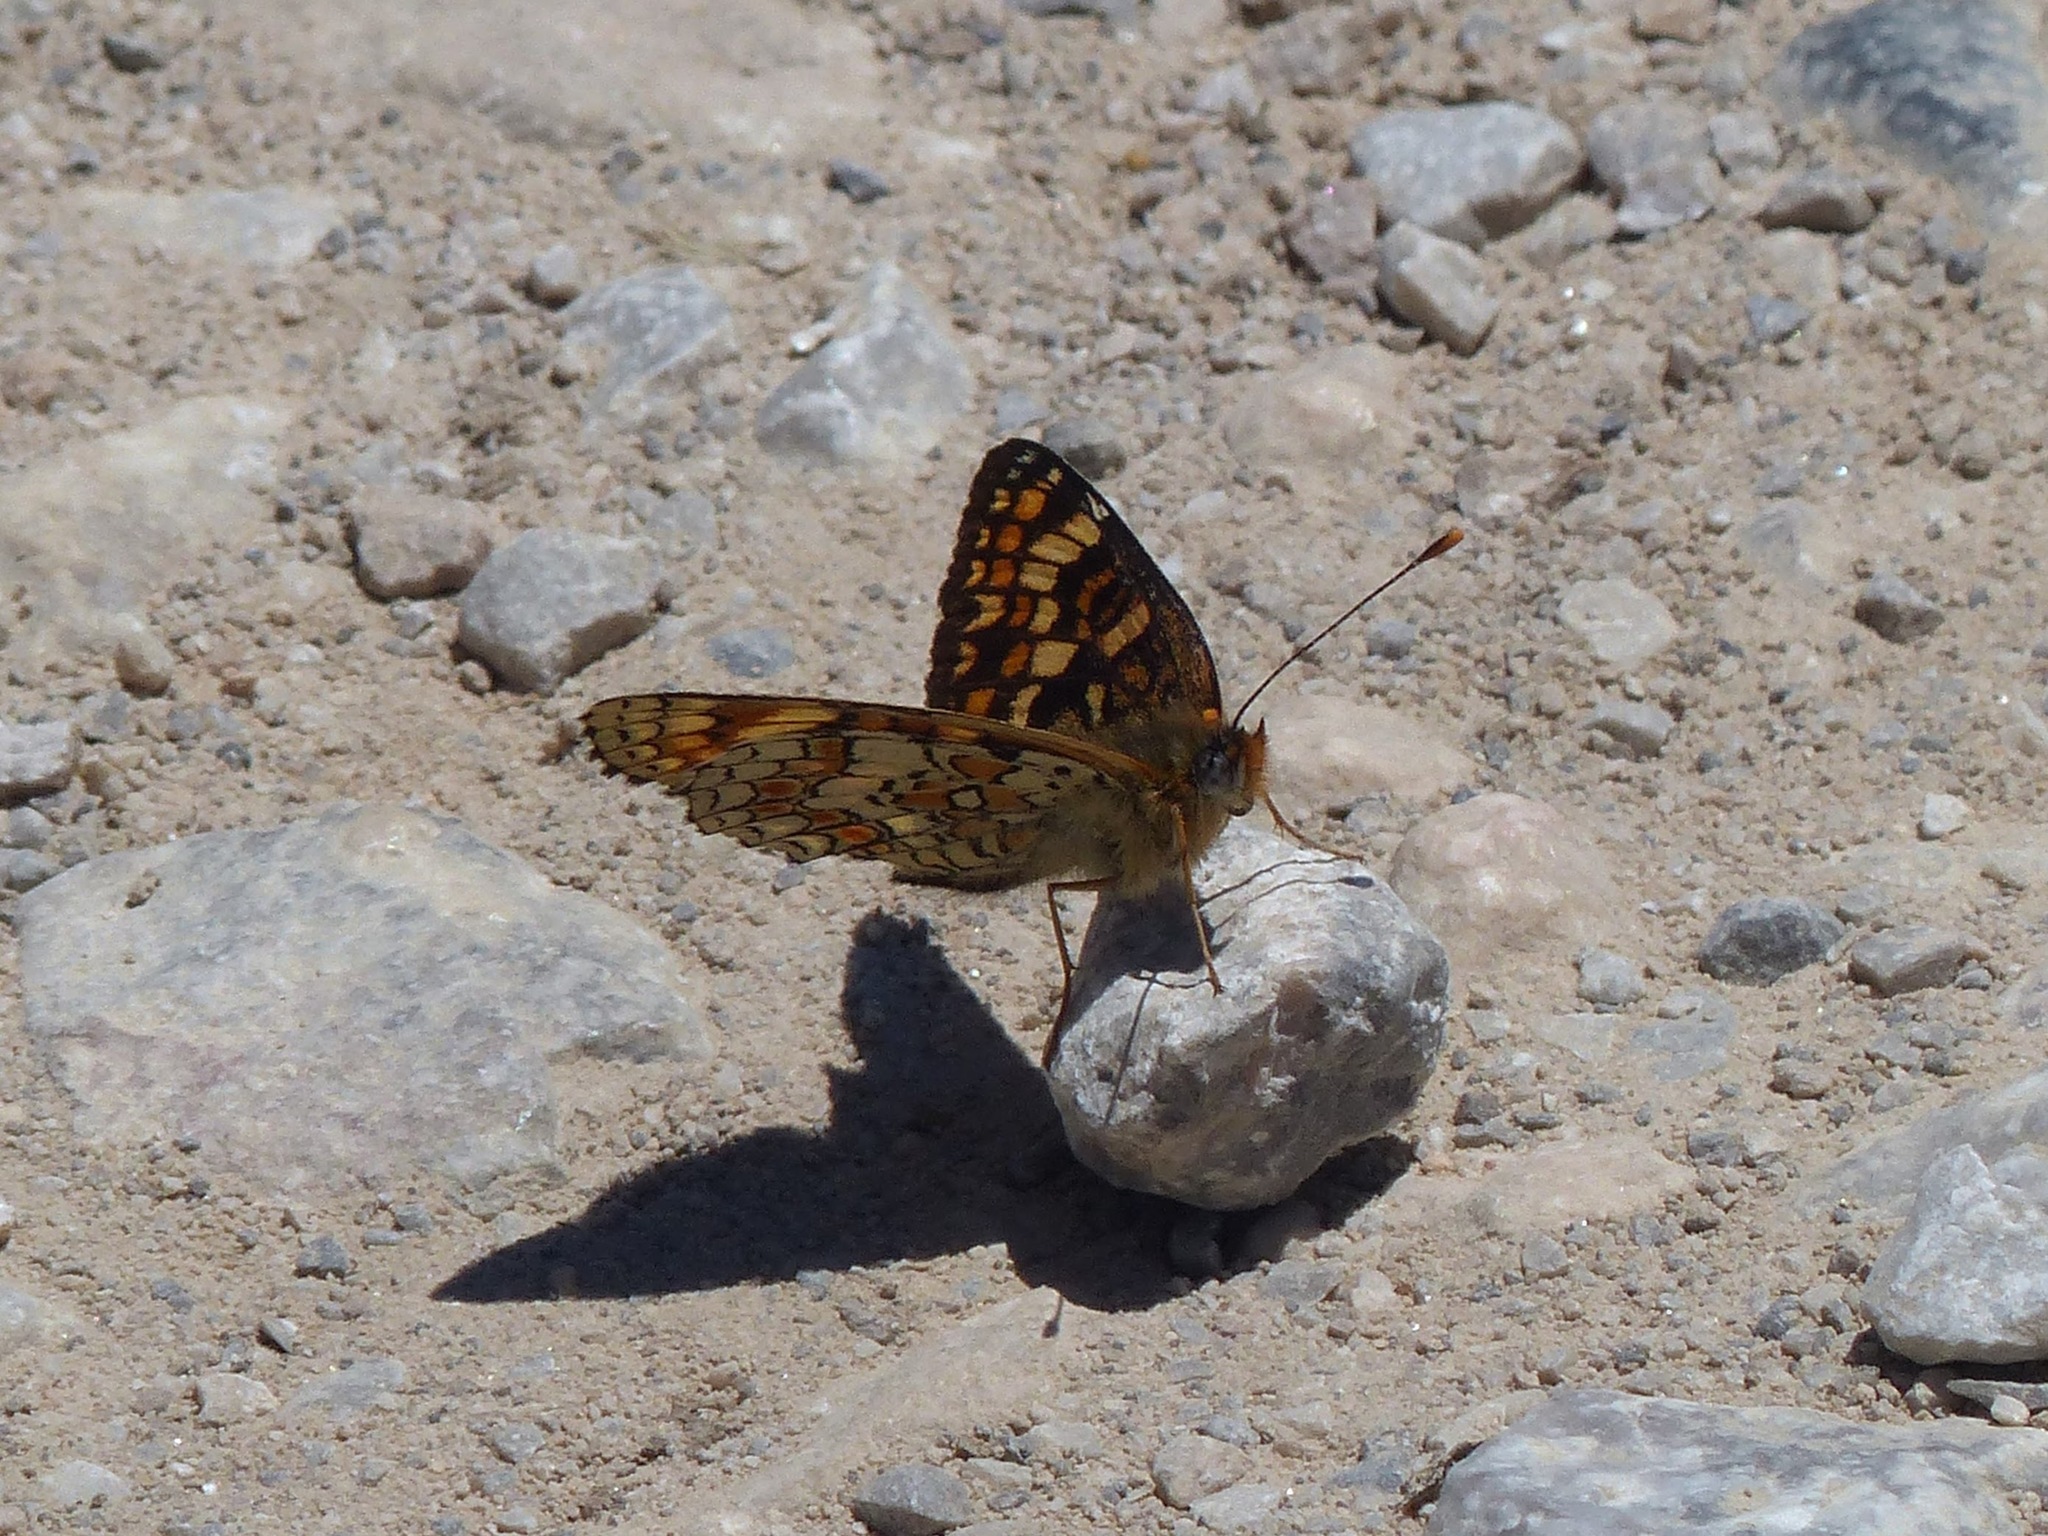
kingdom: Animalia
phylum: Arthropoda
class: Insecta
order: Lepidoptera
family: Nymphalidae
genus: Melitaea
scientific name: Melitaea phoebe
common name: Knapweed fritillary
